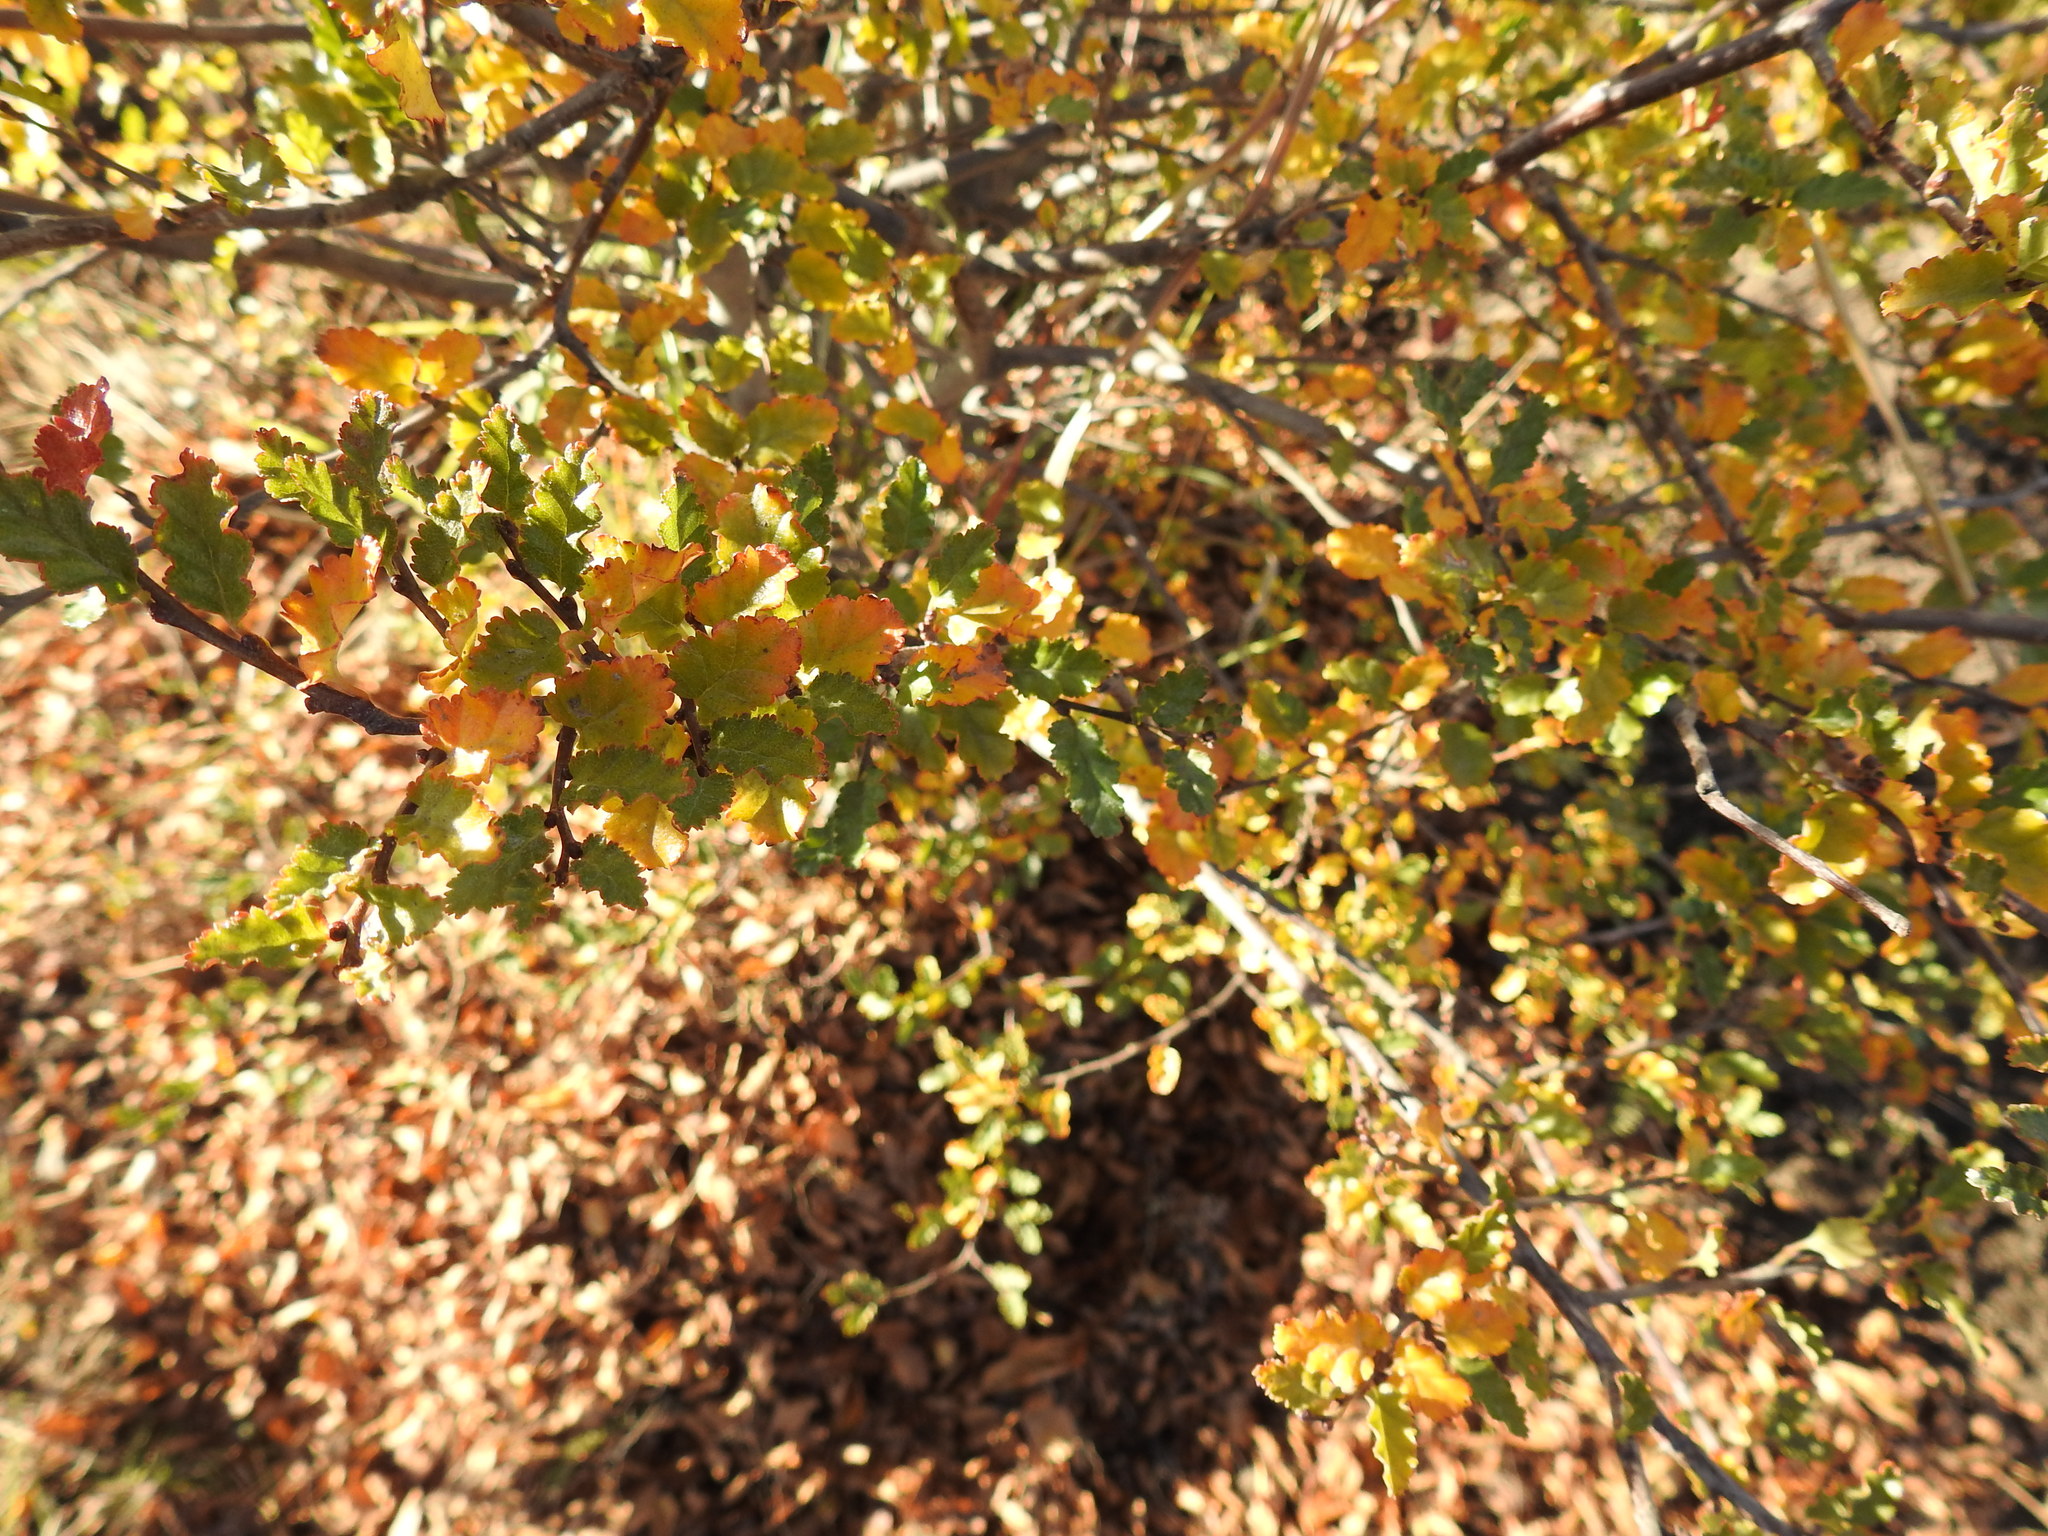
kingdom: Plantae
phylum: Tracheophyta
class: Magnoliopsida
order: Fagales
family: Nothofagaceae
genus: Nothofagus
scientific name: Nothofagus antarctica
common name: Antarctic beech
